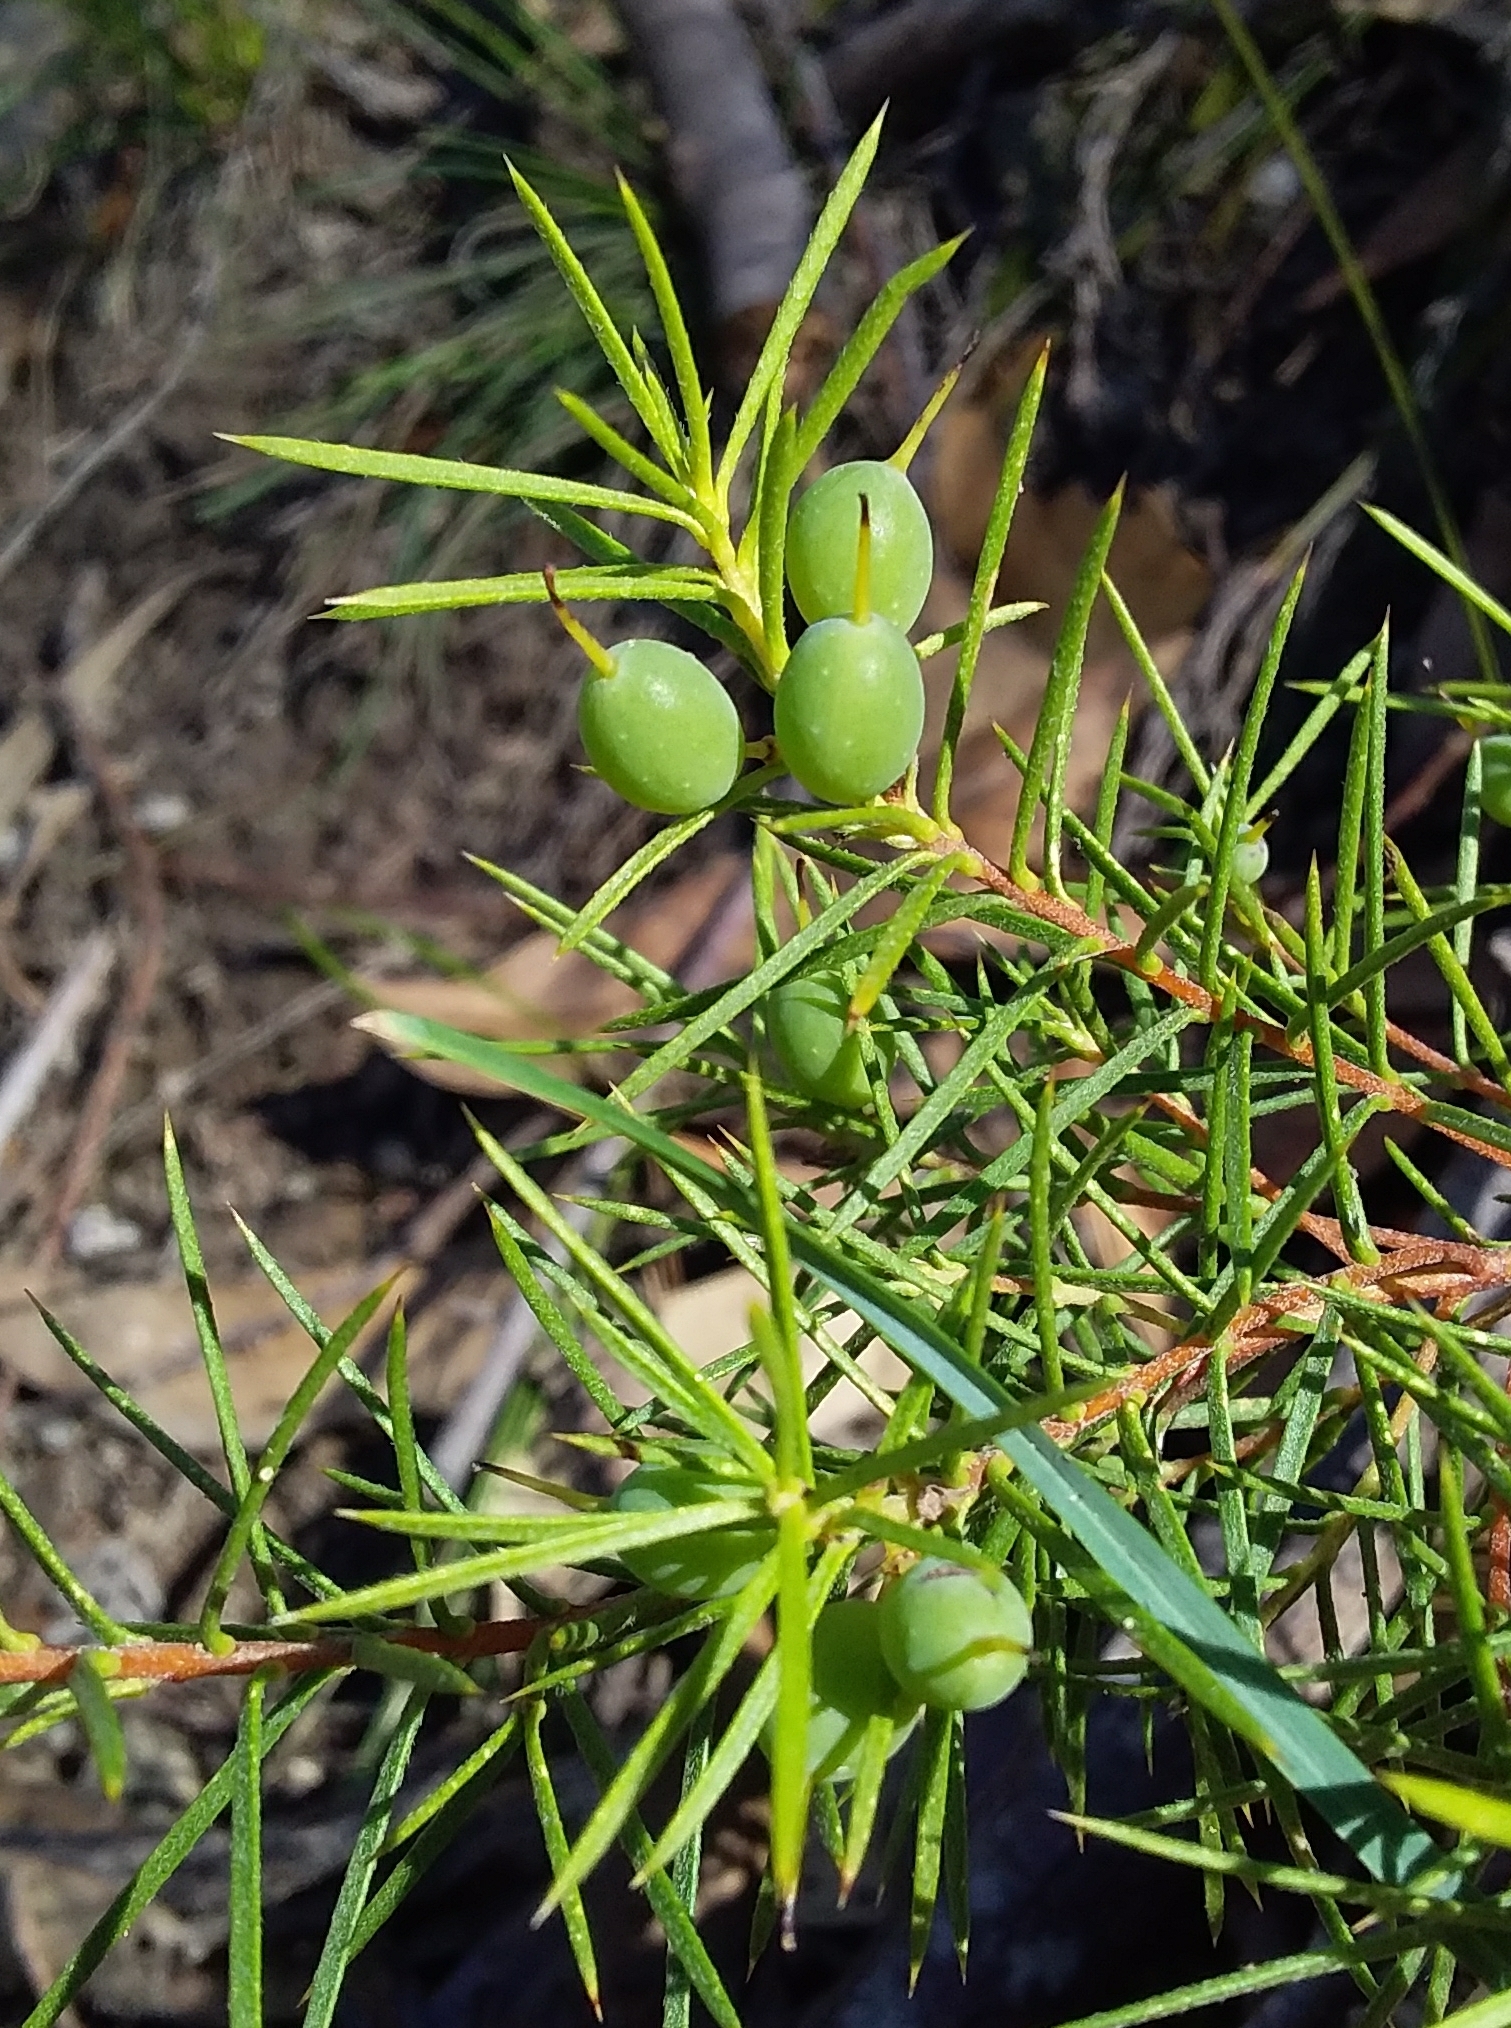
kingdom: Plantae
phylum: Tracheophyta
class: Magnoliopsida
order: Proteales
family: Proteaceae
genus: Persoonia
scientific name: Persoonia juniperina
